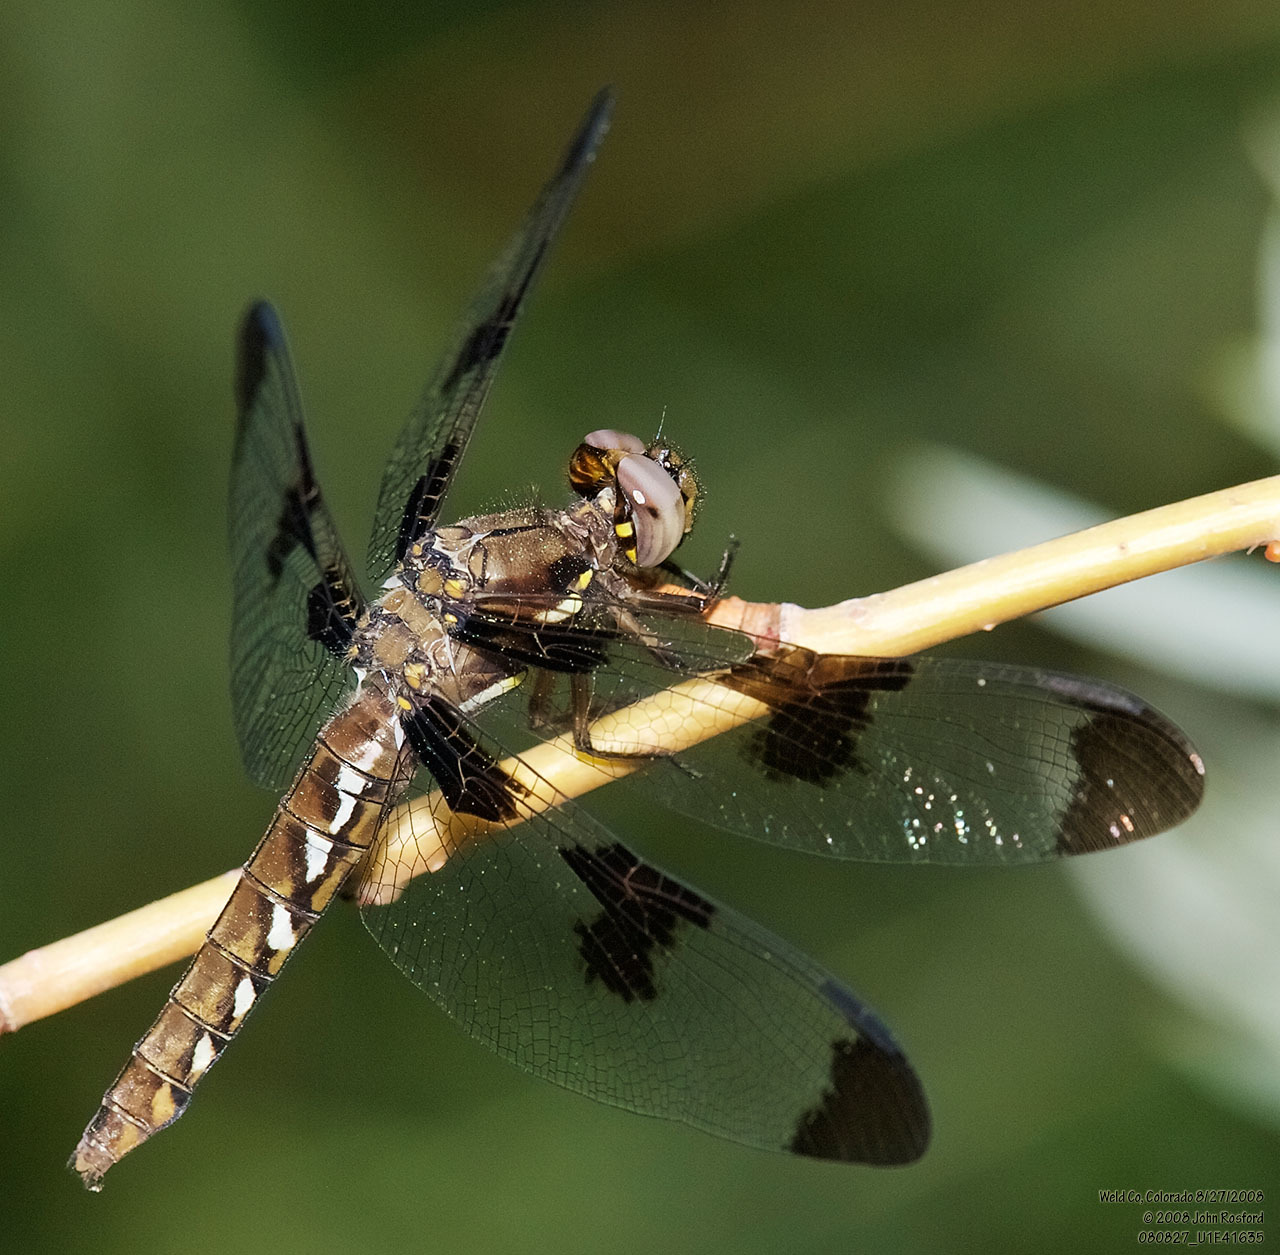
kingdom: Animalia
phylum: Arthropoda
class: Insecta
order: Odonata
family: Libellulidae
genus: Plathemis
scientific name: Plathemis lydia
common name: Common whitetail
